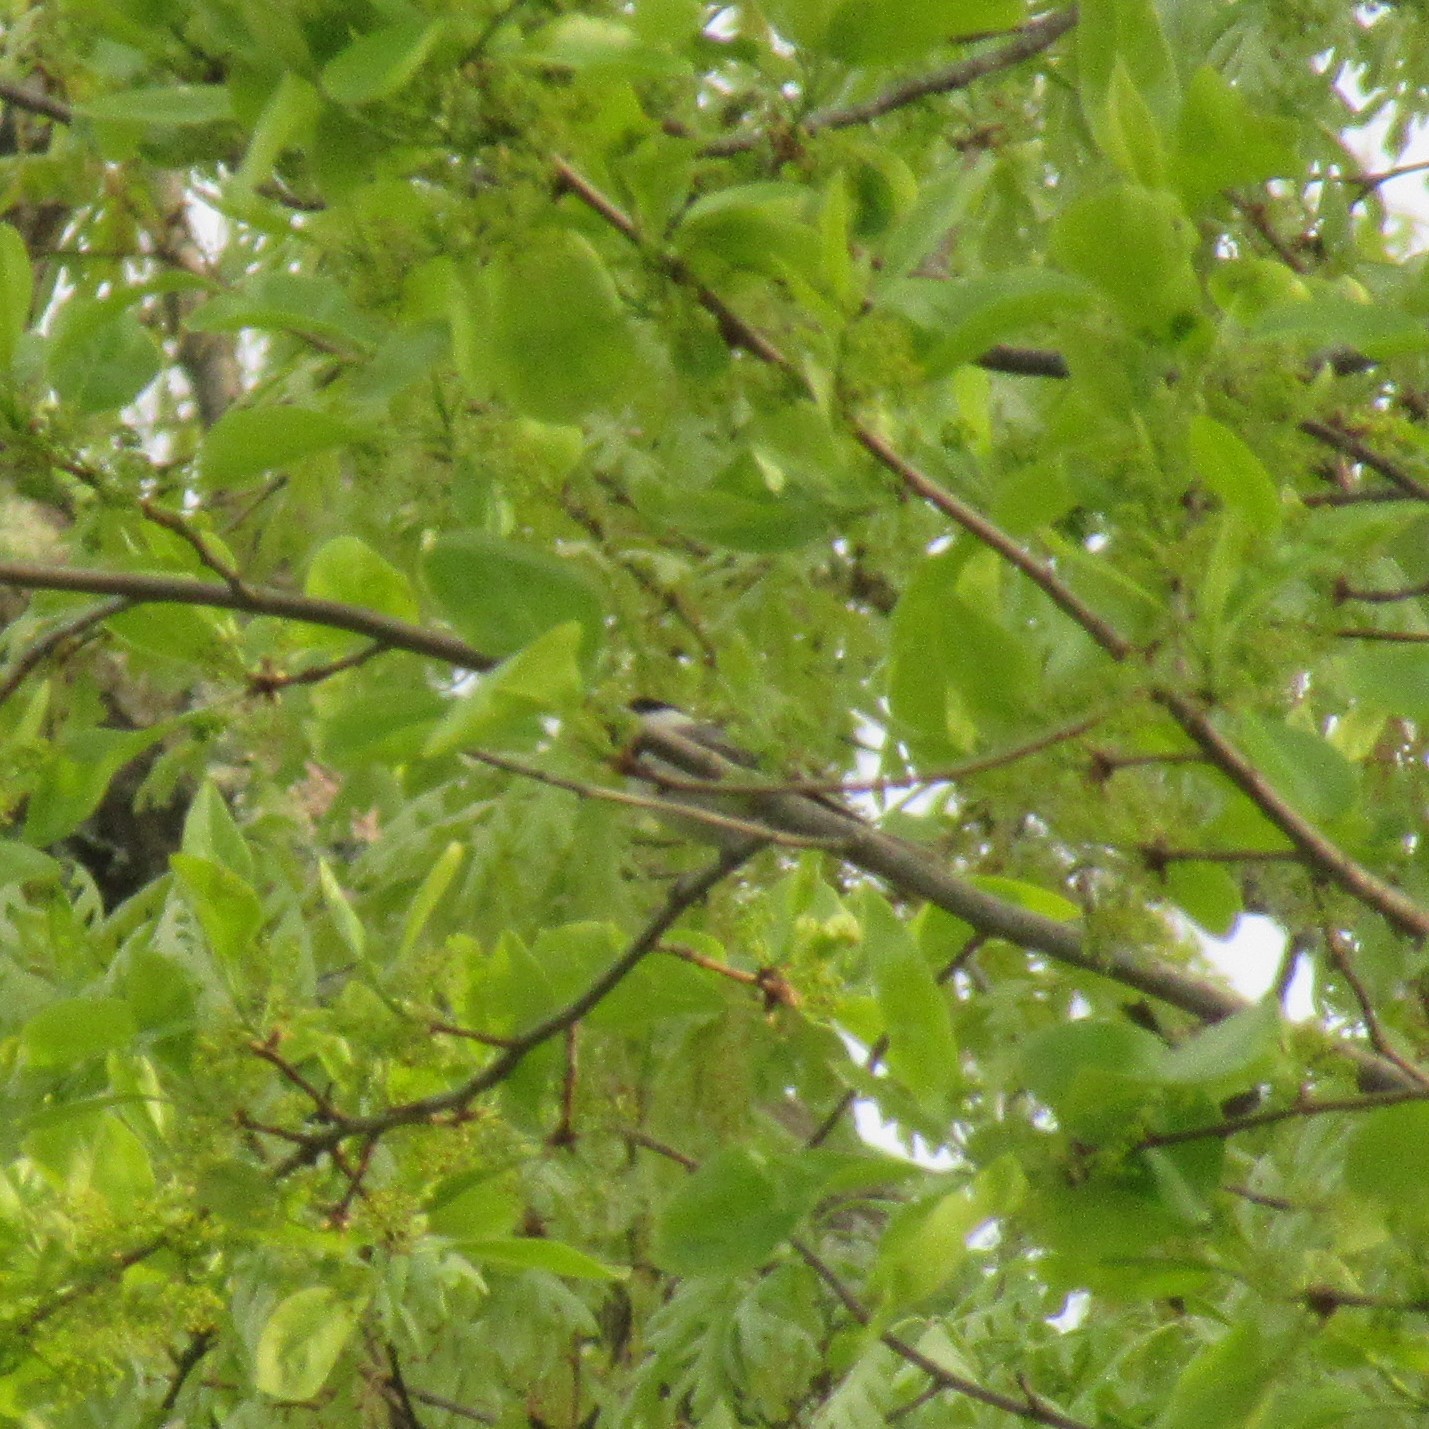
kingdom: Animalia
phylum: Chordata
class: Aves
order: Passeriformes
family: Paridae
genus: Poecile
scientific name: Poecile carolinensis
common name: Carolina chickadee
